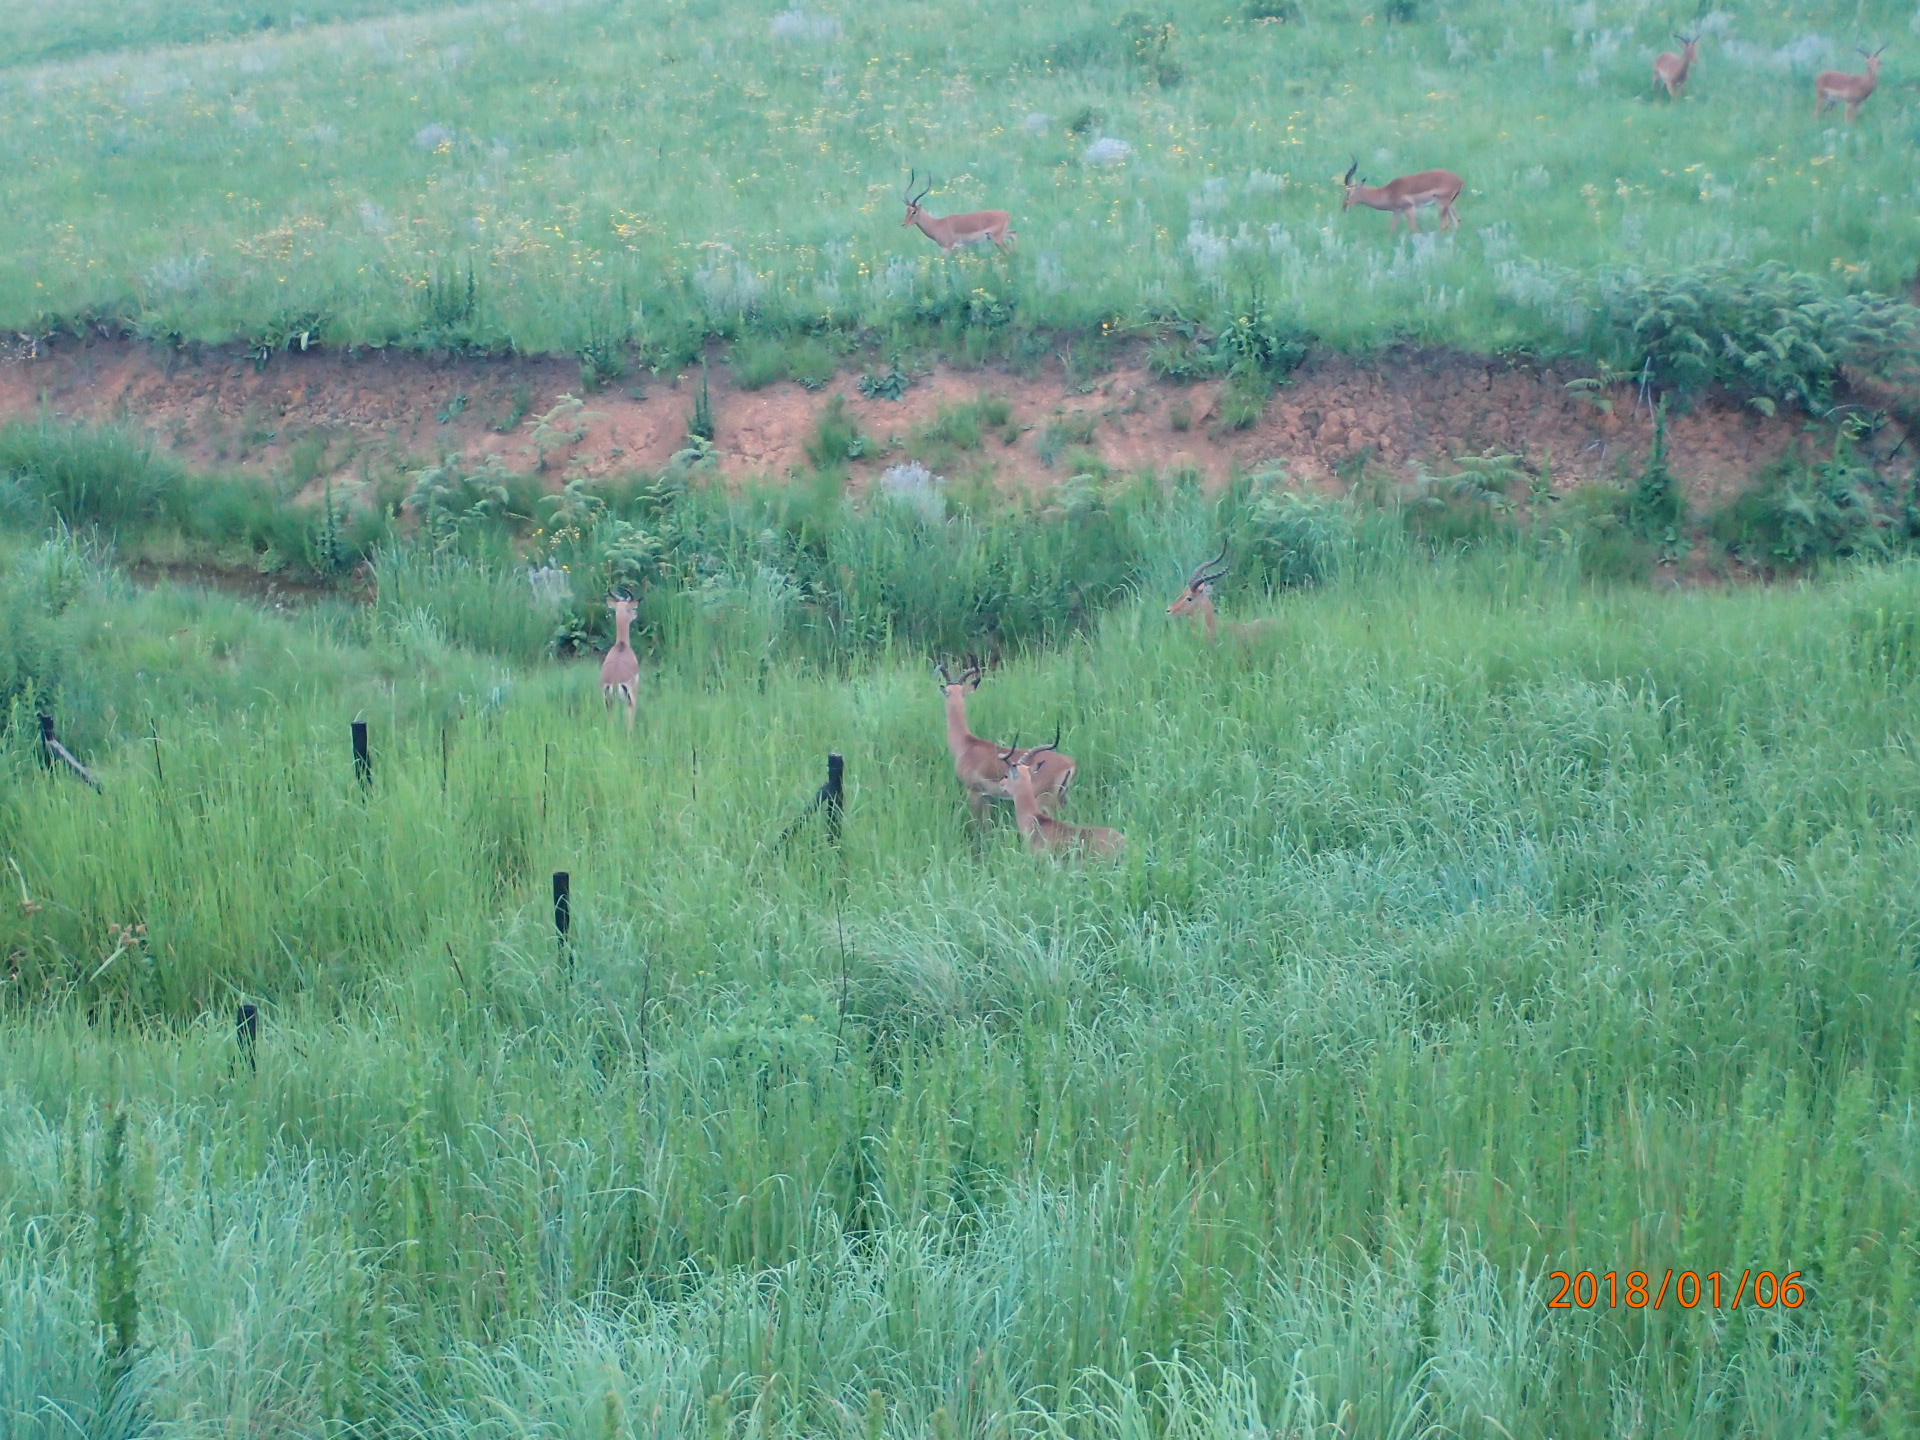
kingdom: Animalia
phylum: Chordata
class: Mammalia
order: Artiodactyla
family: Bovidae
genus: Aepyceros
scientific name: Aepyceros melampus
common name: Impala
